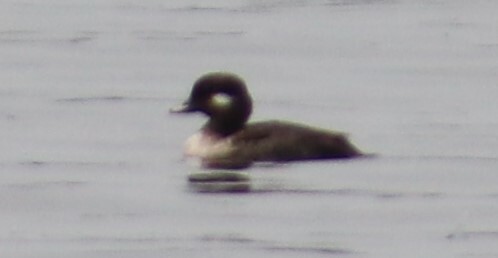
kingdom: Animalia
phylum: Chordata
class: Aves
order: Anseriformes
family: Anatidae
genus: Bucephala
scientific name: Bucephala albeola
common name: Bufflehead
